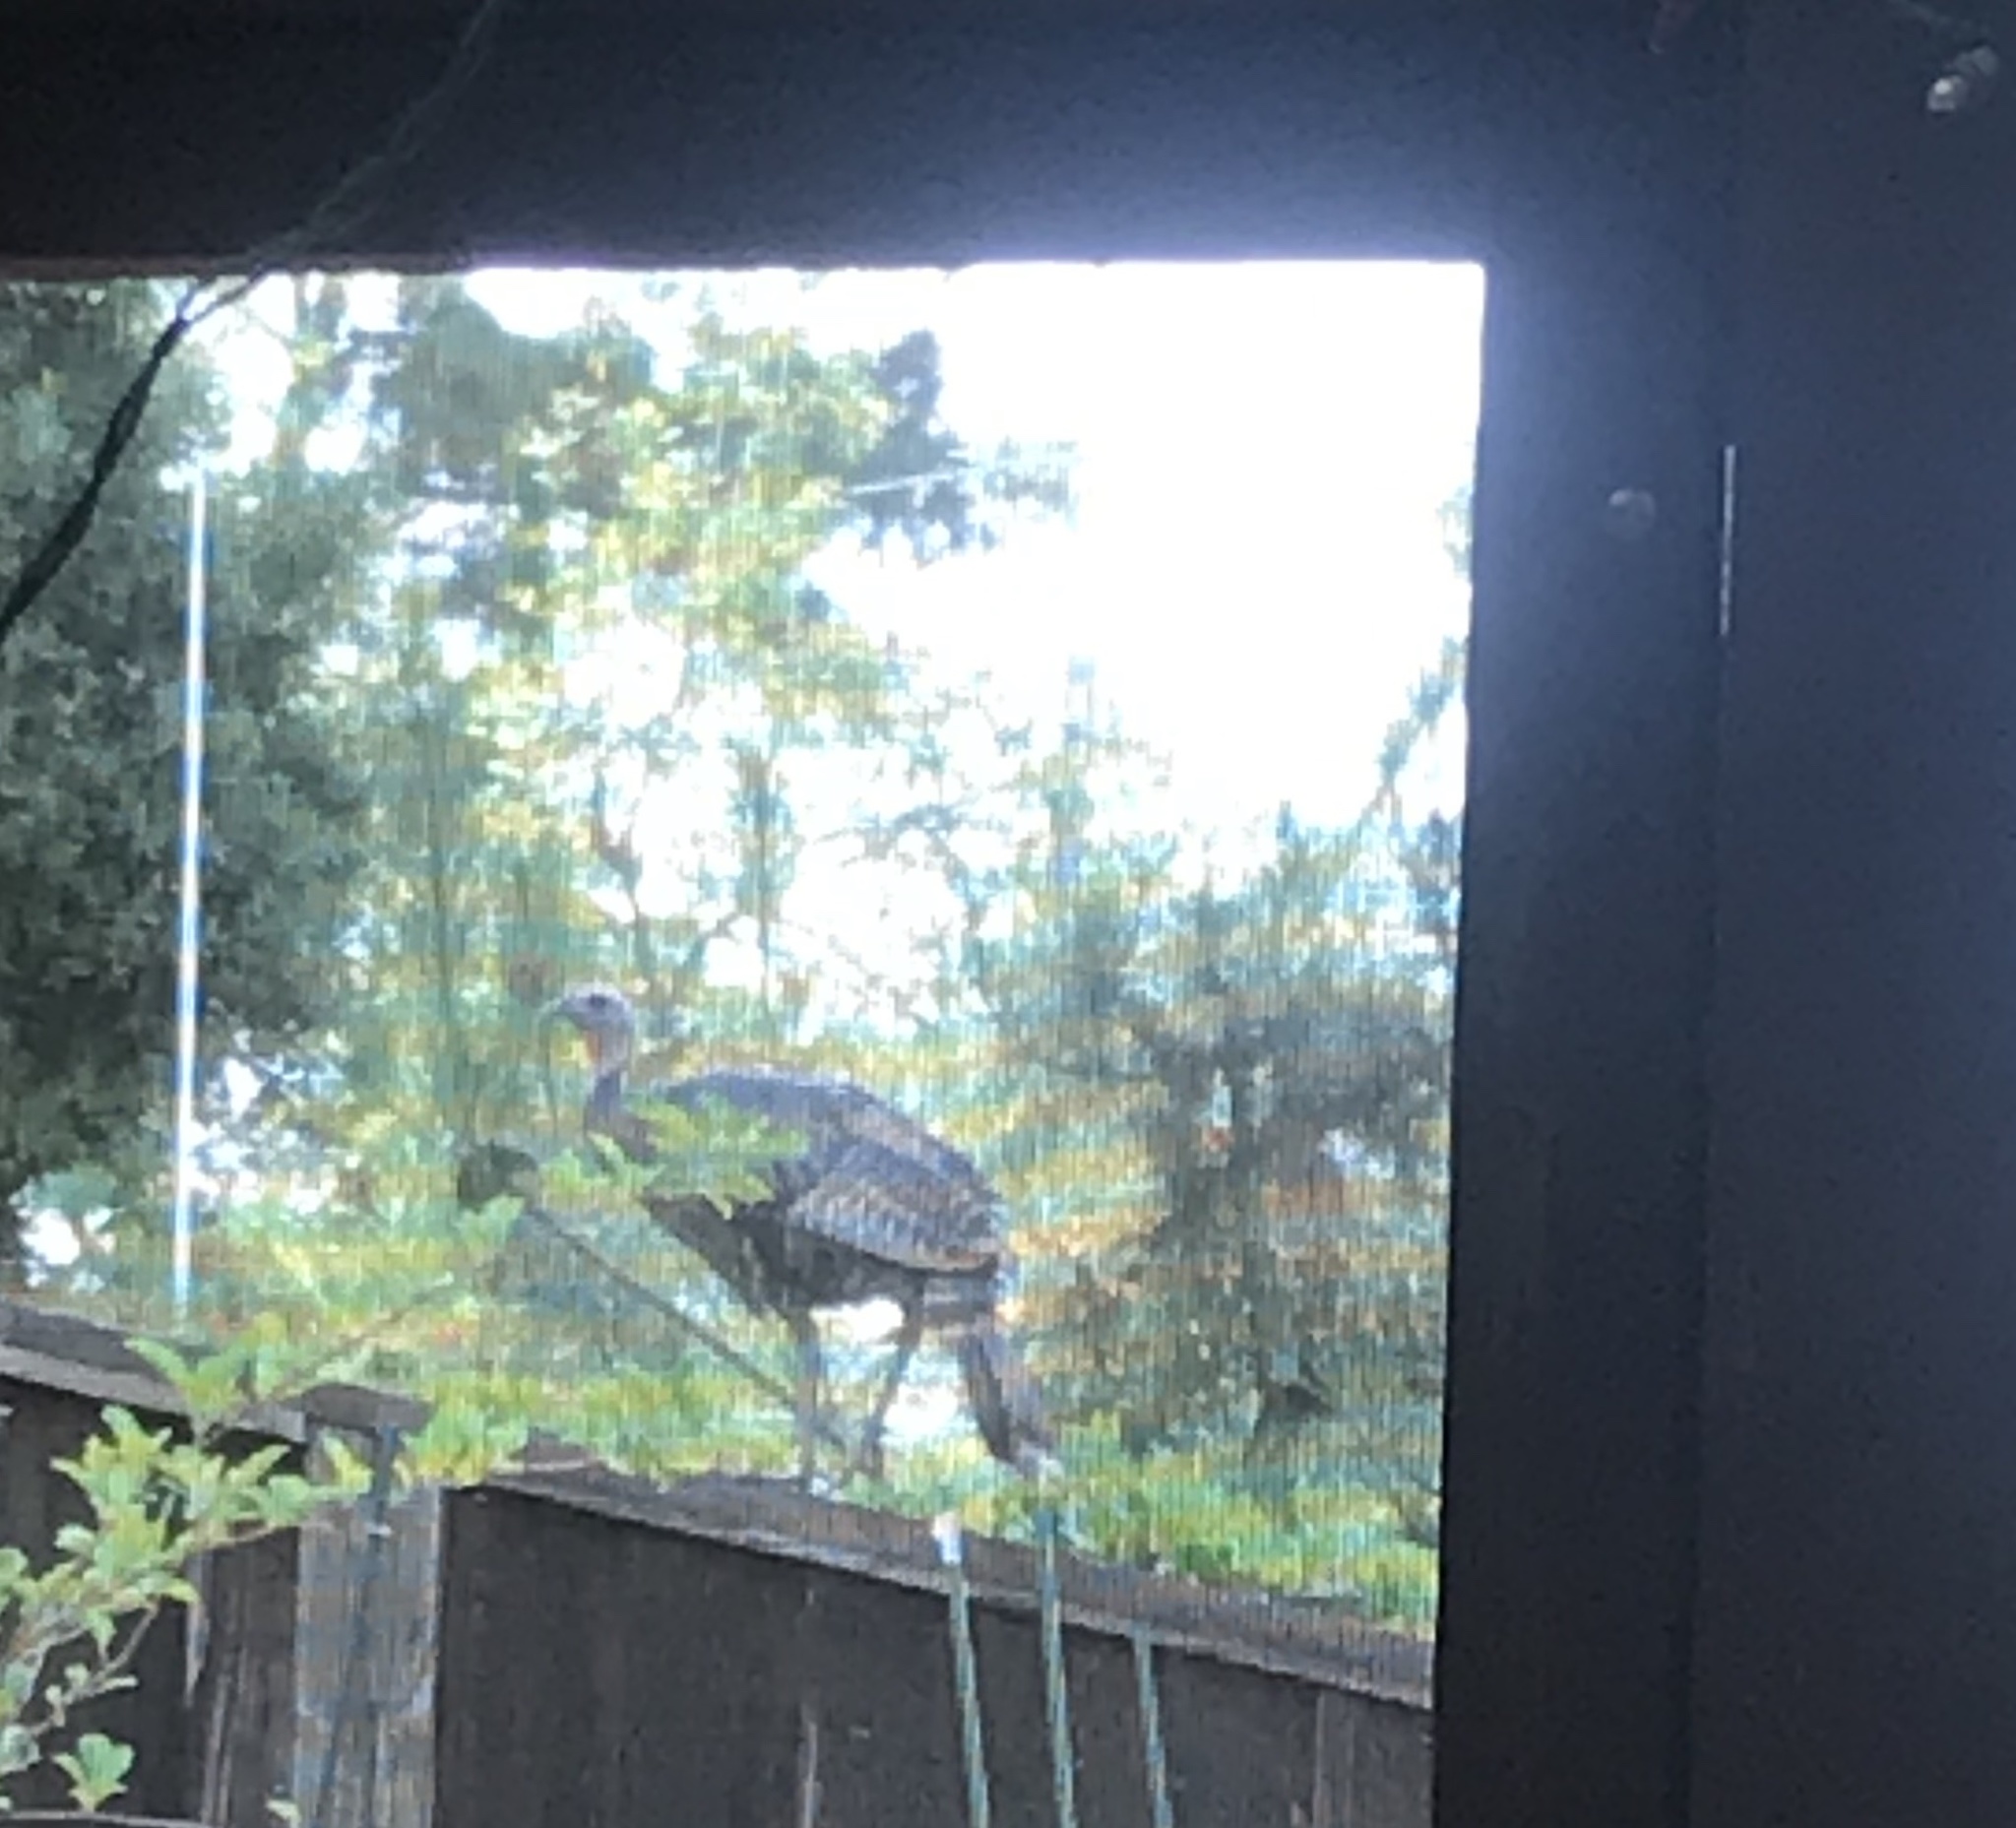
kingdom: Animalia
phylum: Chordata
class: Aves
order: Galliformes
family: Phasianidae
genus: Meleagris
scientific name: Meleagris gallopavo
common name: Wild turkey
